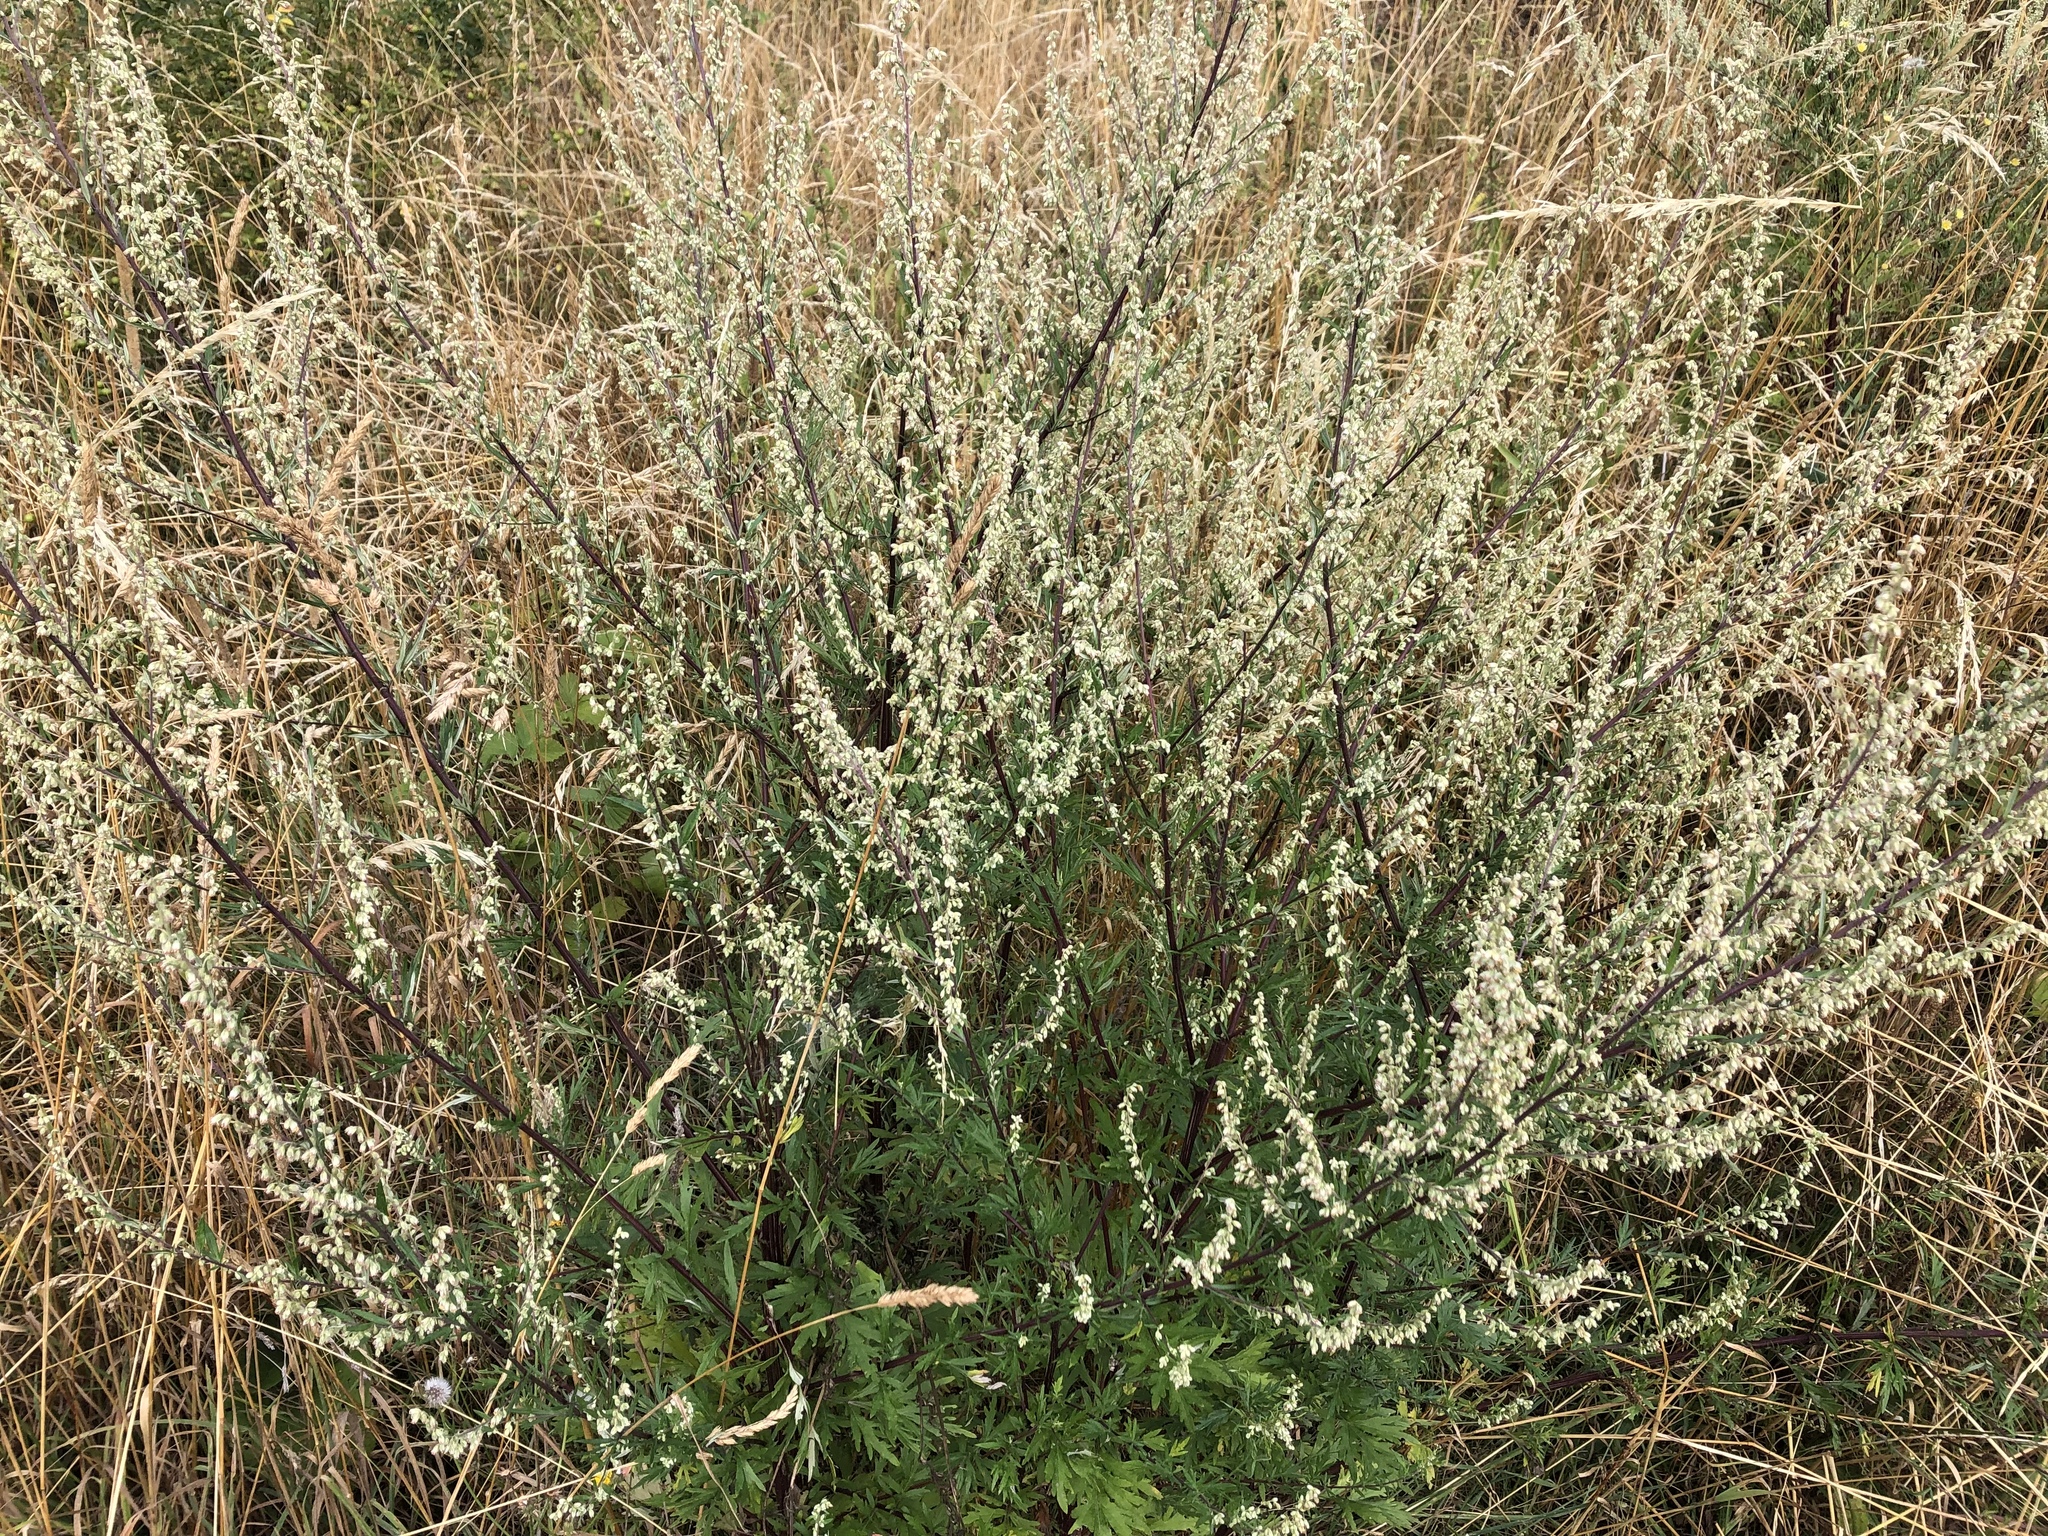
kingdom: Plantae
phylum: Tracheophyta
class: Magnoliopsida
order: Asterales
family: Asteraceae
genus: Artemisia
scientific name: Artemisia vulgaris
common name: Mugwort
